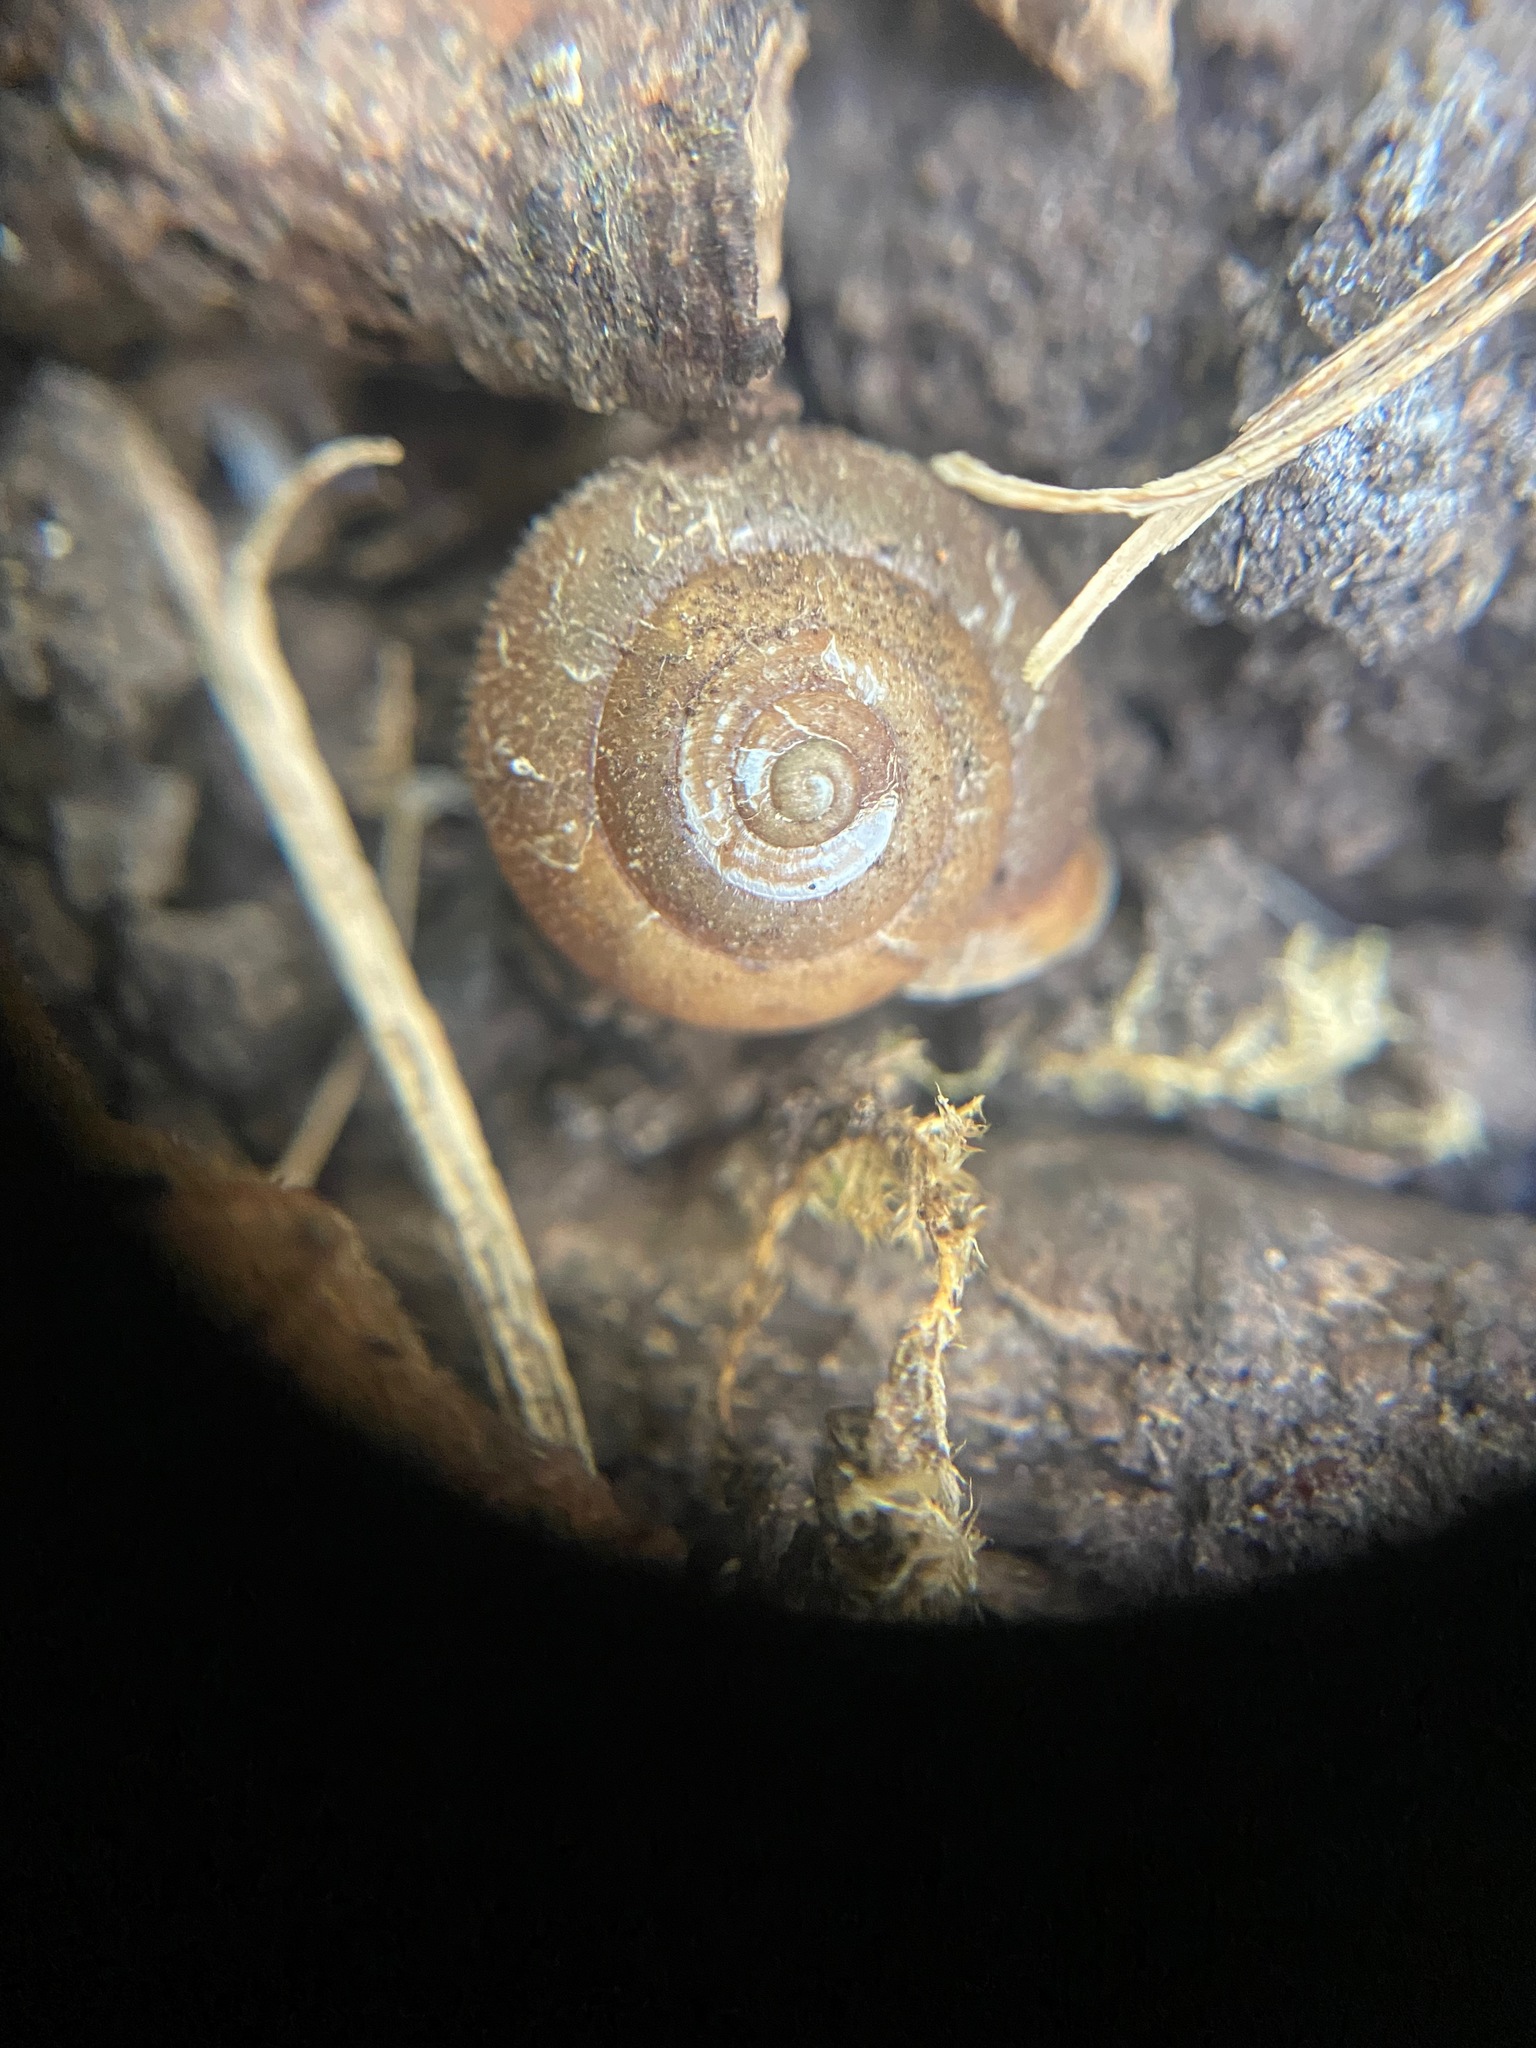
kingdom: Animalia
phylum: Mollusca
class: Gastropoda
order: Stylommatophora
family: Polygyridae
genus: Vespericola
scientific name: Vespericola columbianus
